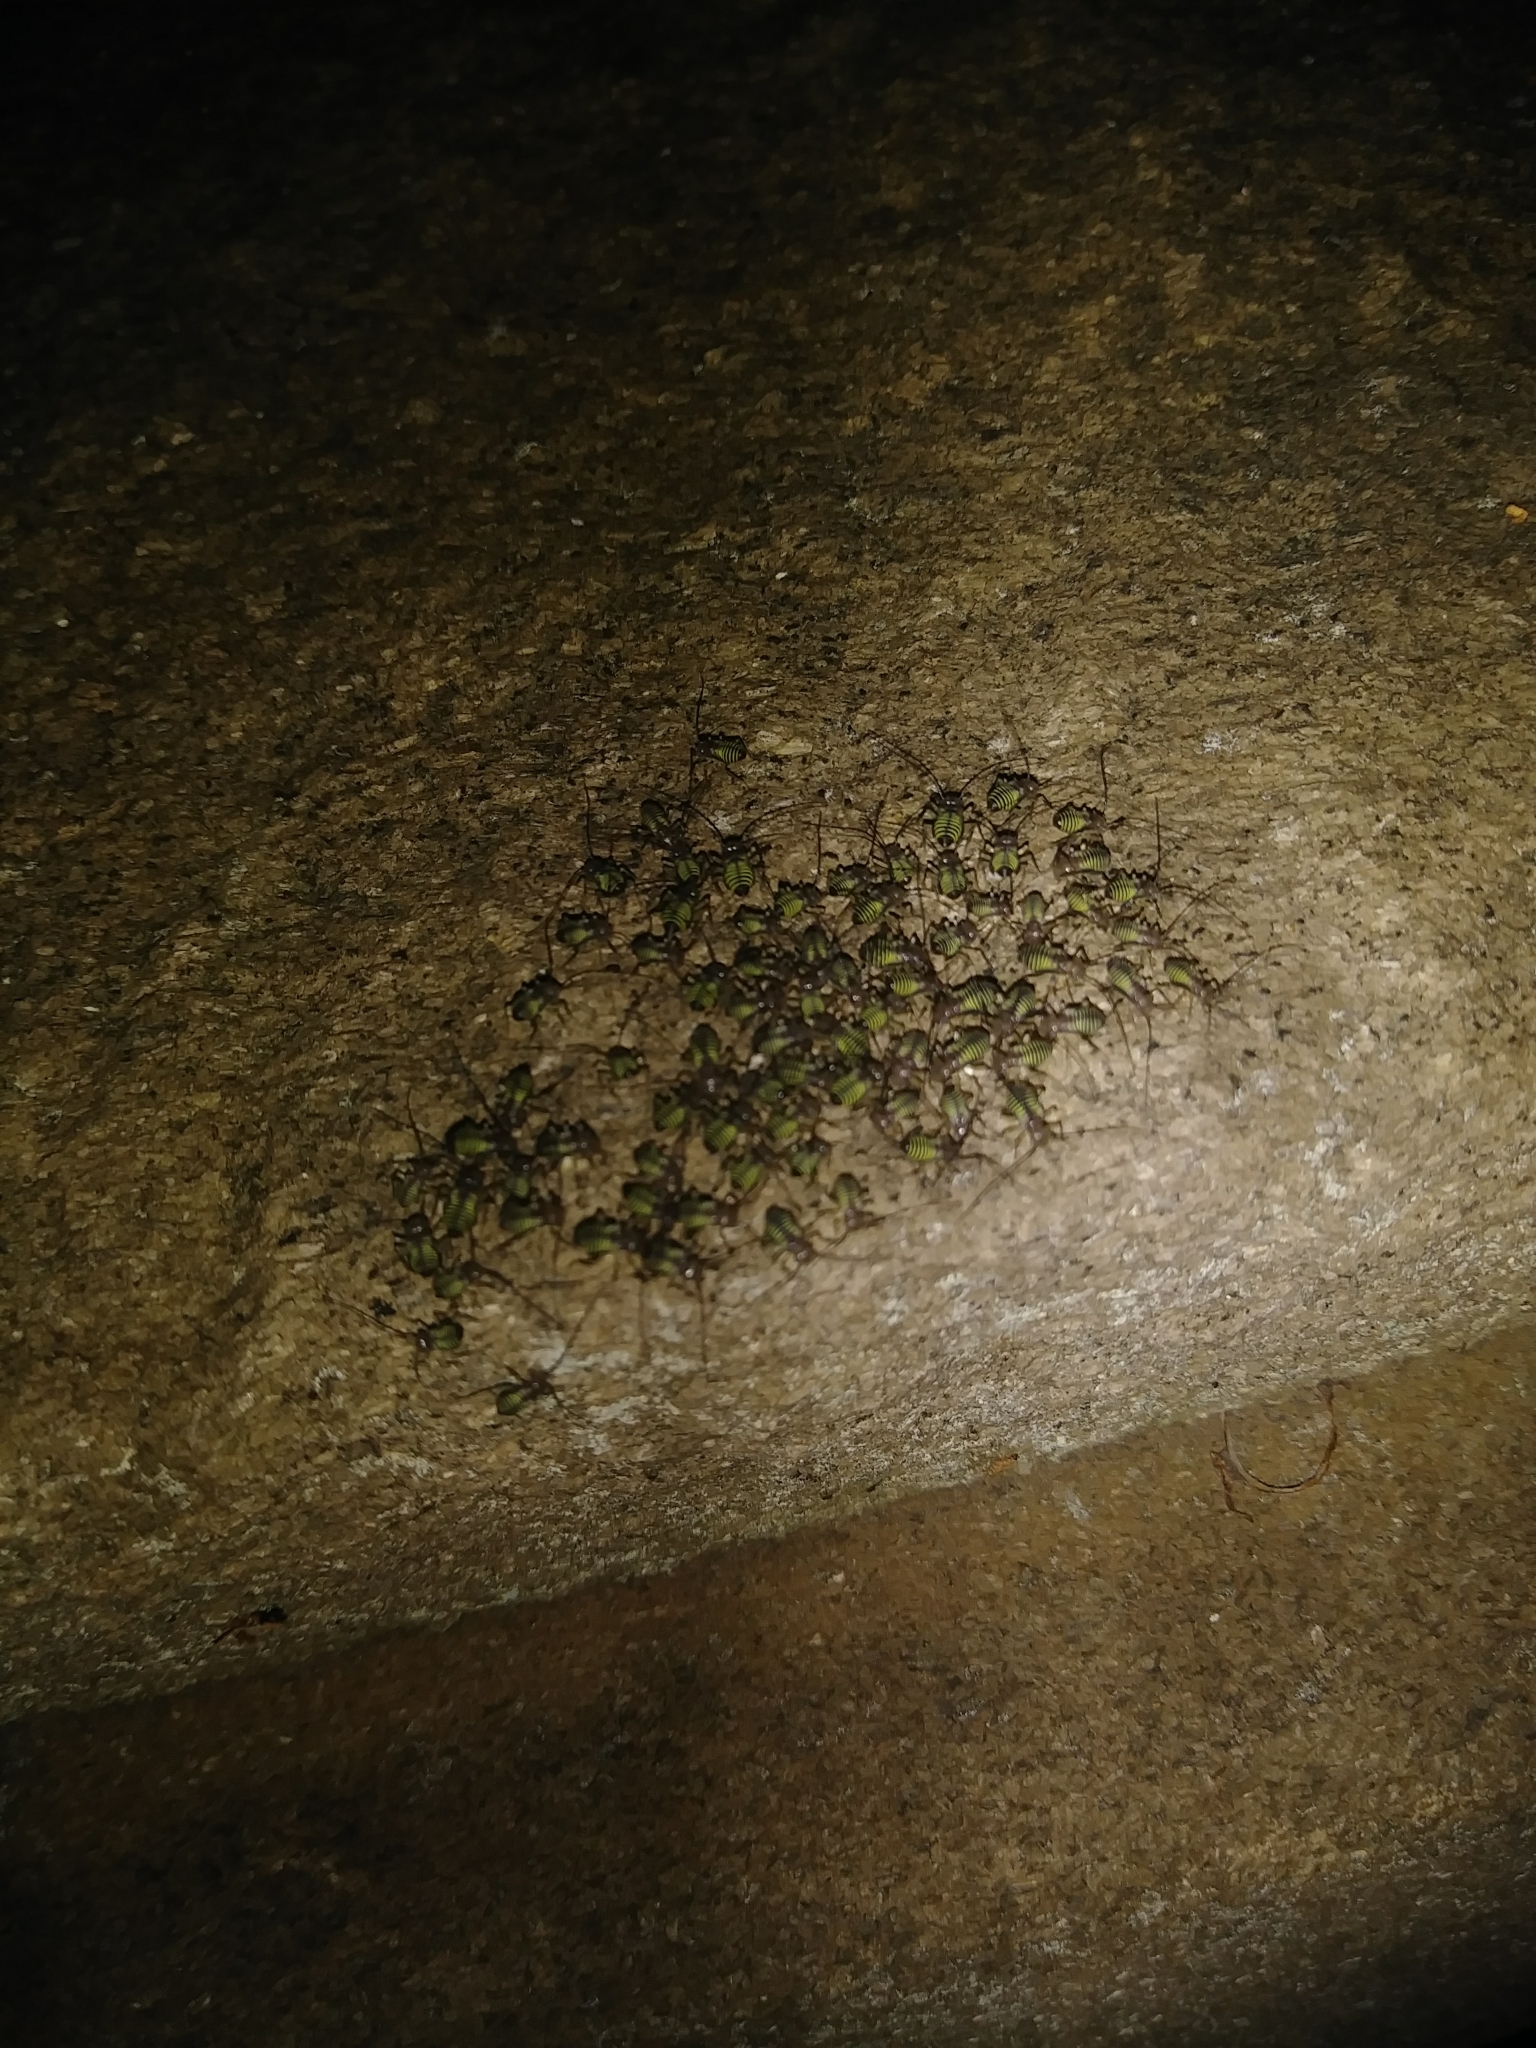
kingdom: Animalia
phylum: Arthropoda
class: Insecta
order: Psocodea
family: Psocidae
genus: Cerastipsocus
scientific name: Cerastipsocus venosus
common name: Tree cattle
